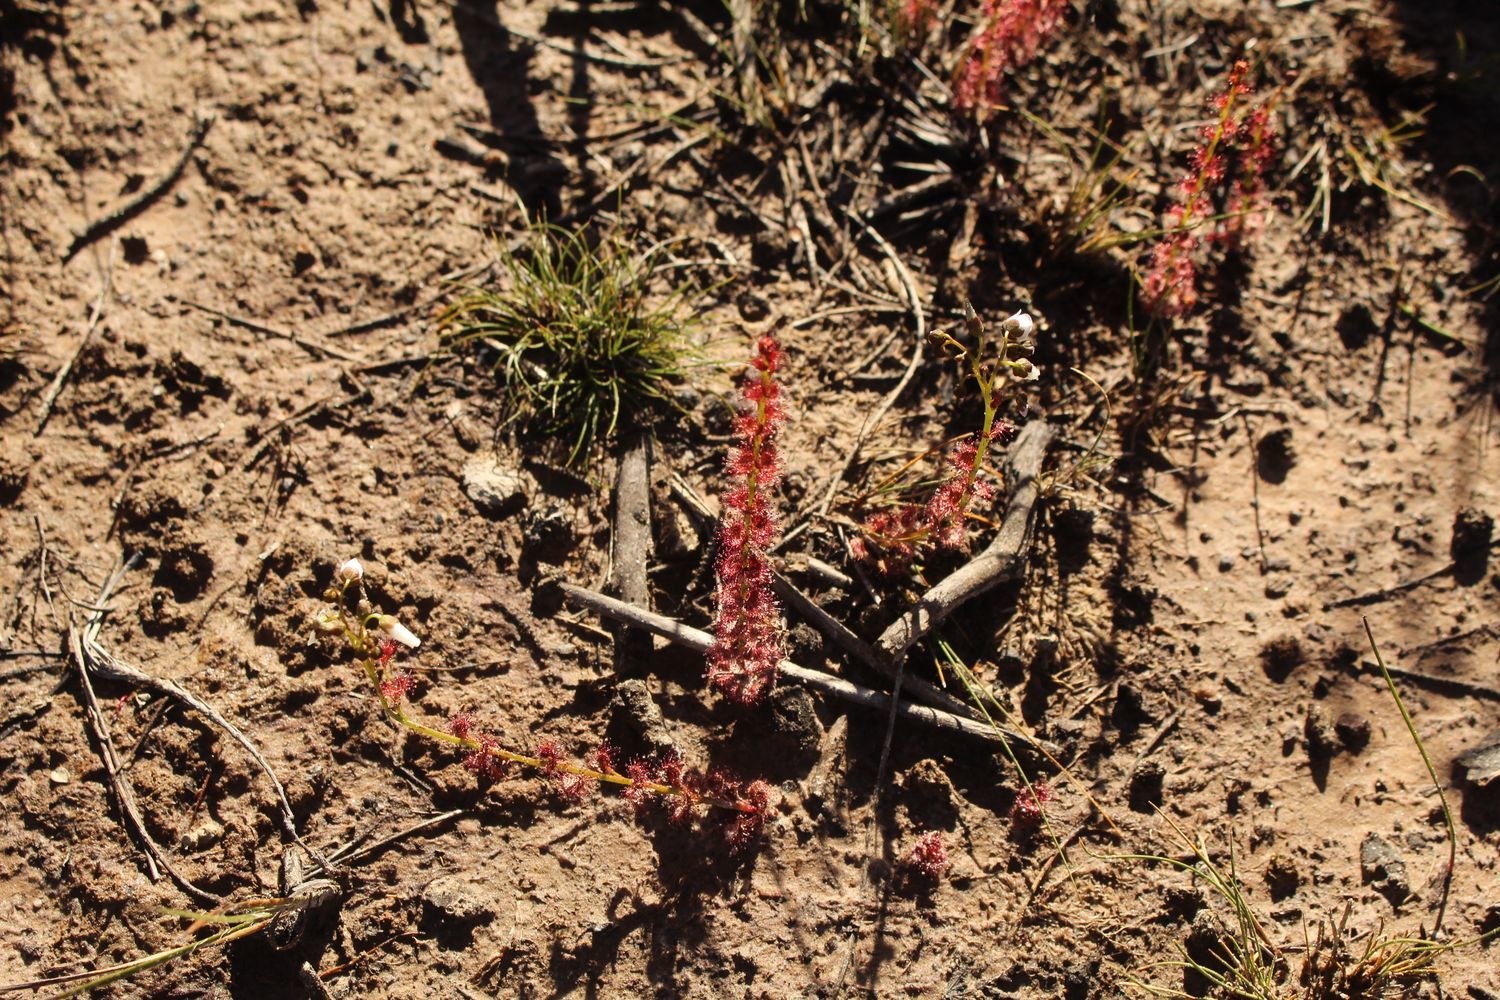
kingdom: Plantae
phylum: Tracheophyta
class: Magnoliopsida
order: Caryophyllales
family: Droseraceae
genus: Drosera
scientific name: Drosera platypoda
